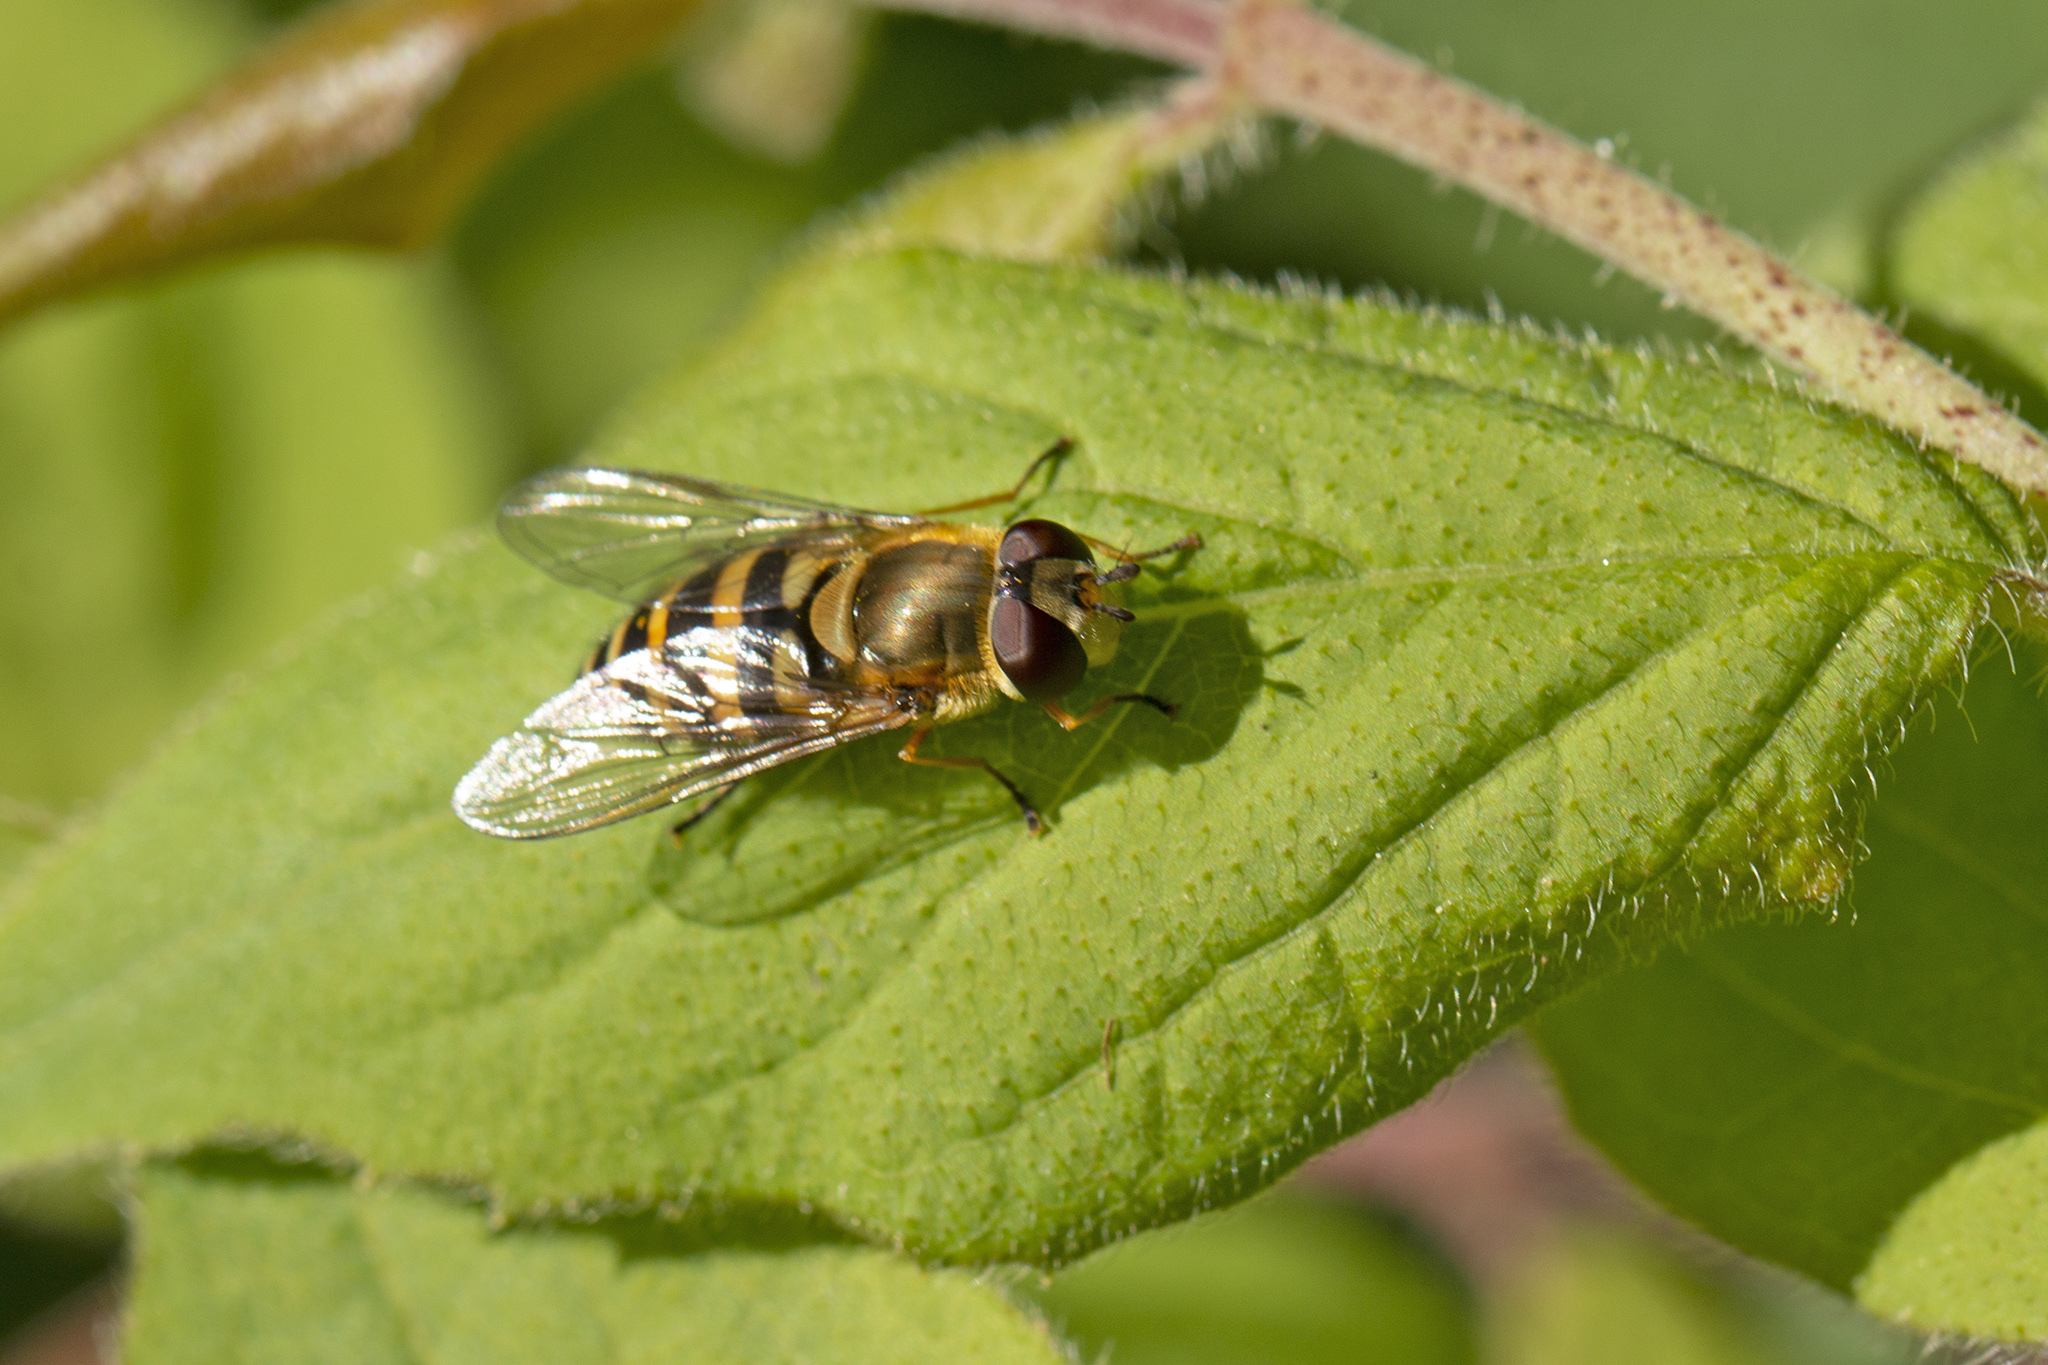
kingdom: Animalia
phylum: Arthropoda
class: Insecta
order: Diptera
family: Syrphidae
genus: Syrphus
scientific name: Syrphus
